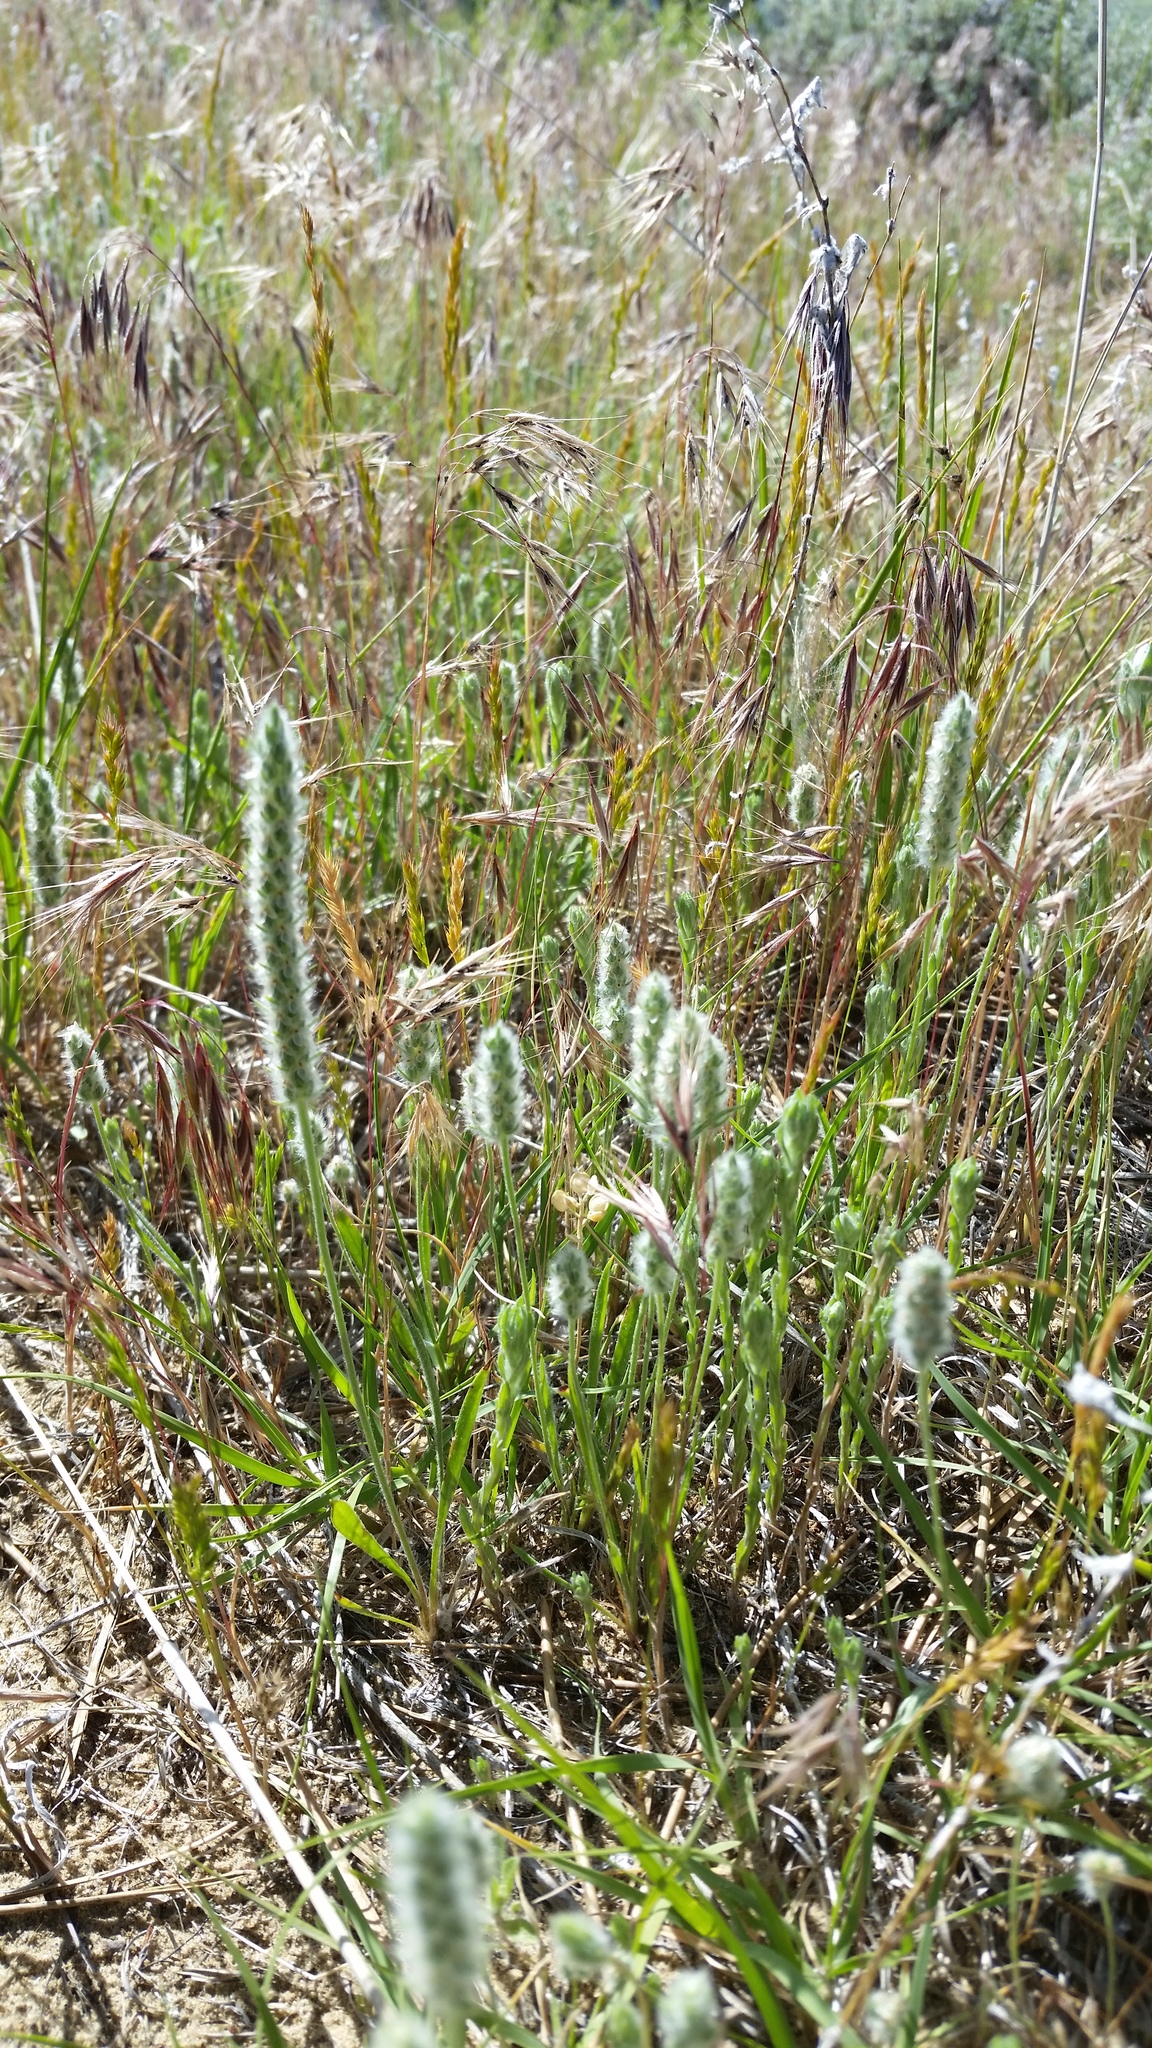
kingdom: Plantae
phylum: Tracheophyta
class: Magnoliopsida
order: Lamiales
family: Plantaginaceae
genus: Plantago
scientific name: Plantago patagonica
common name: Patagonia indian-wheat
